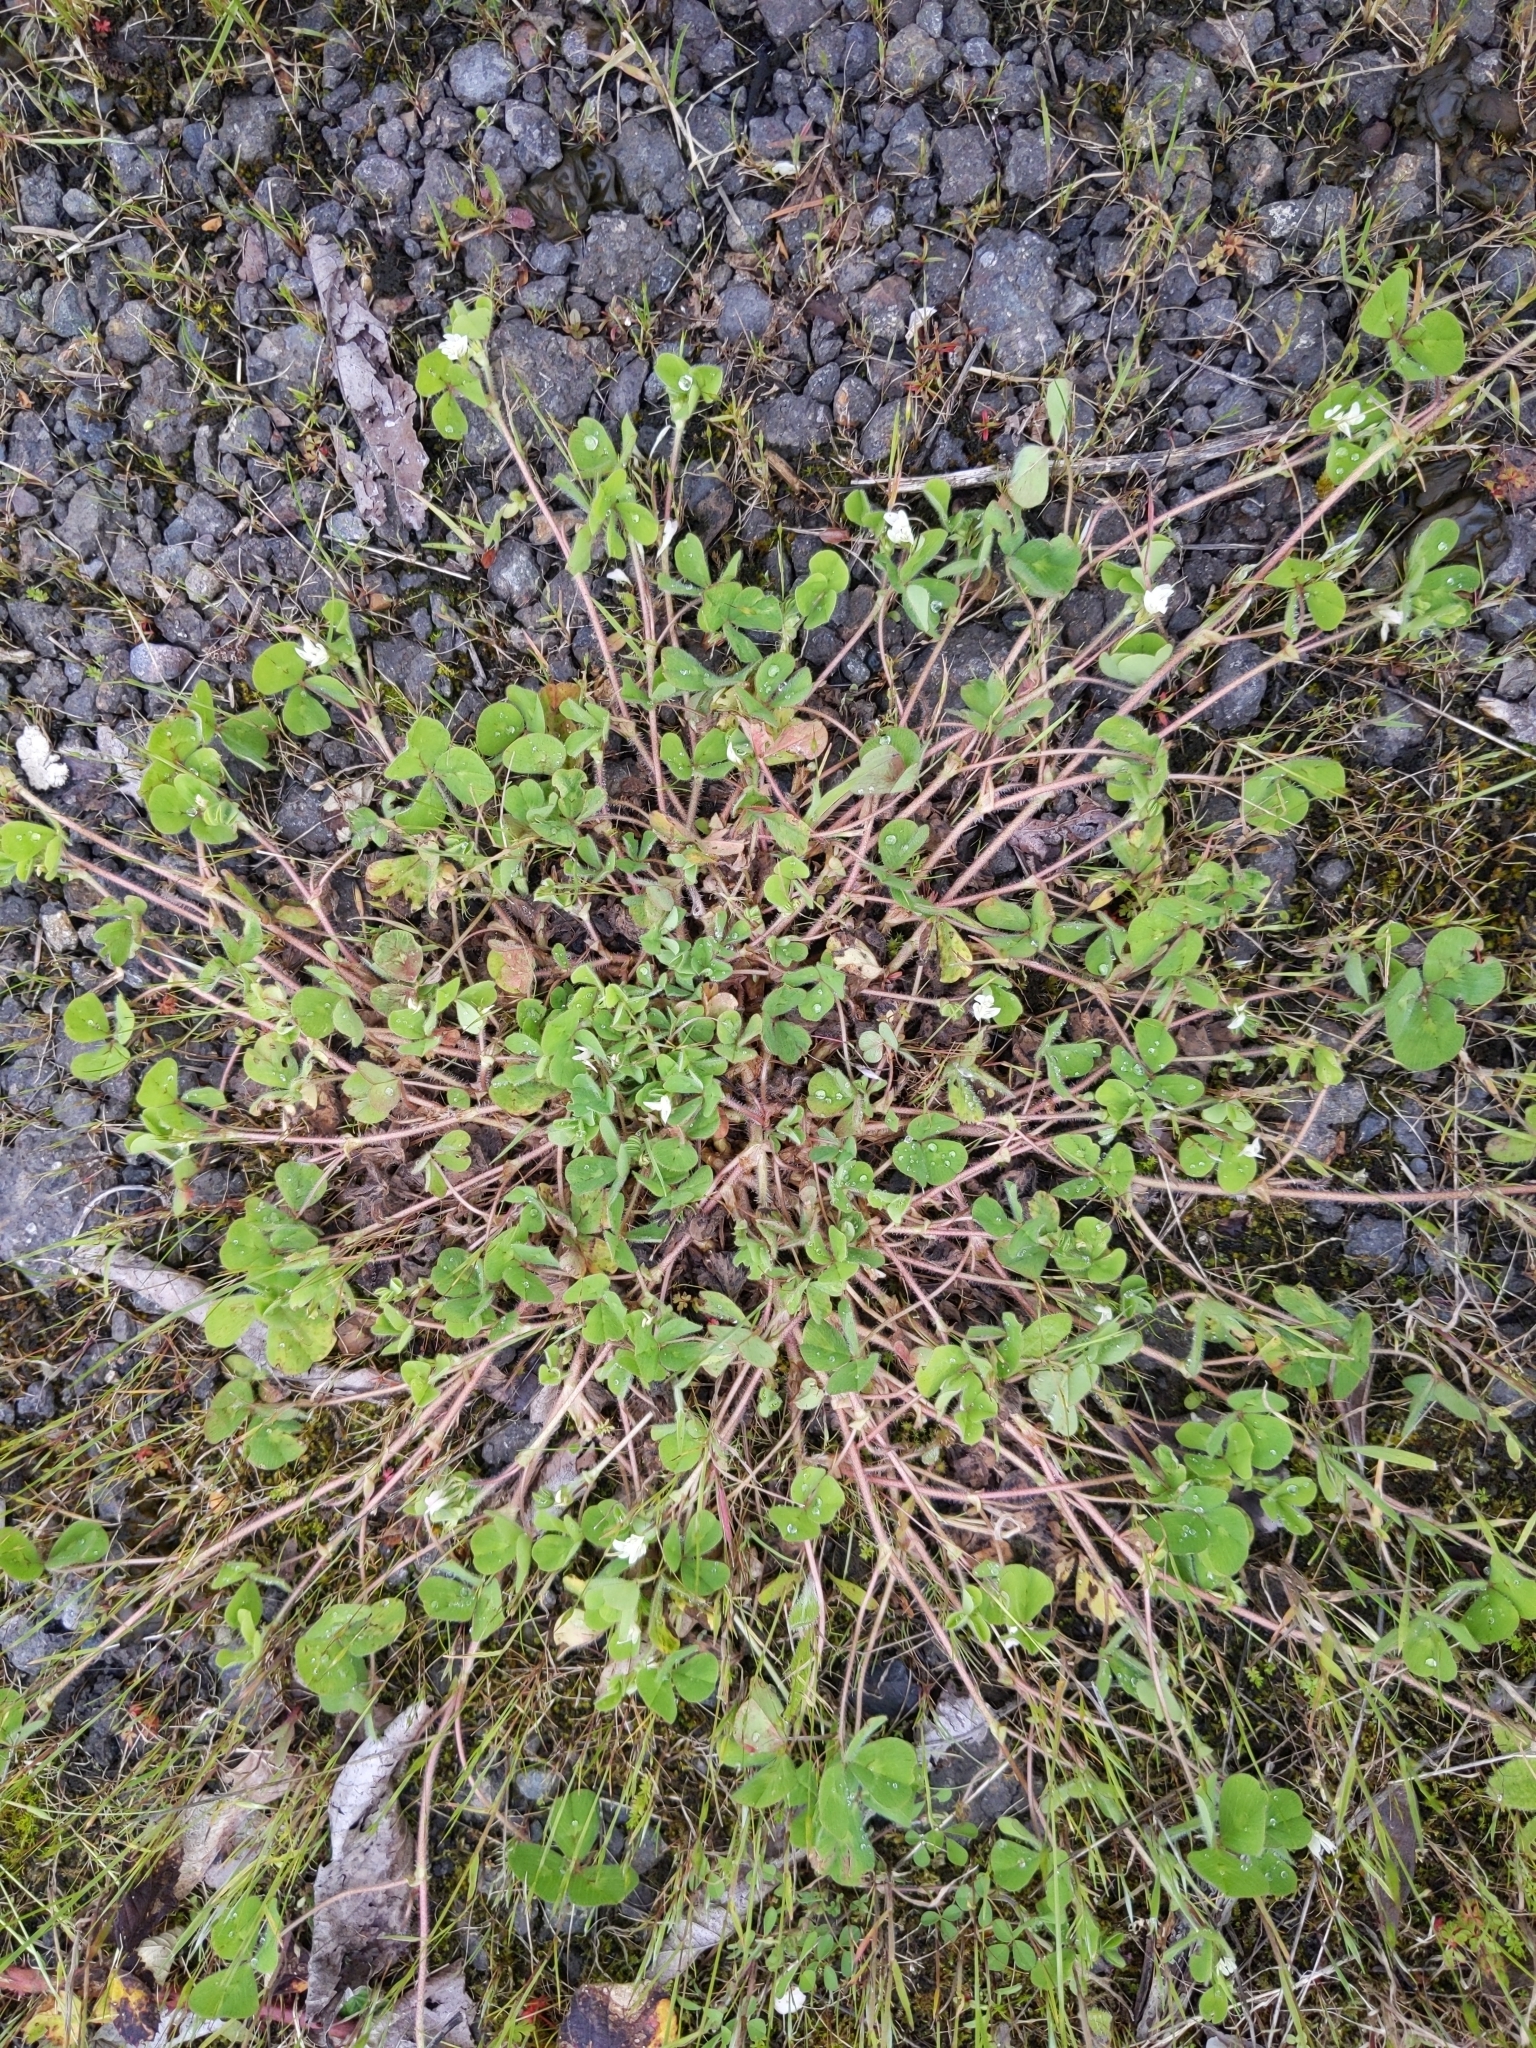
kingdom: Plantae
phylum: Tracheophyta
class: Magnoliopsida
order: Fabales
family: Fabaceae
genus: Trifolium
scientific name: Trifolium subterraneum
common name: Subterranean clover
